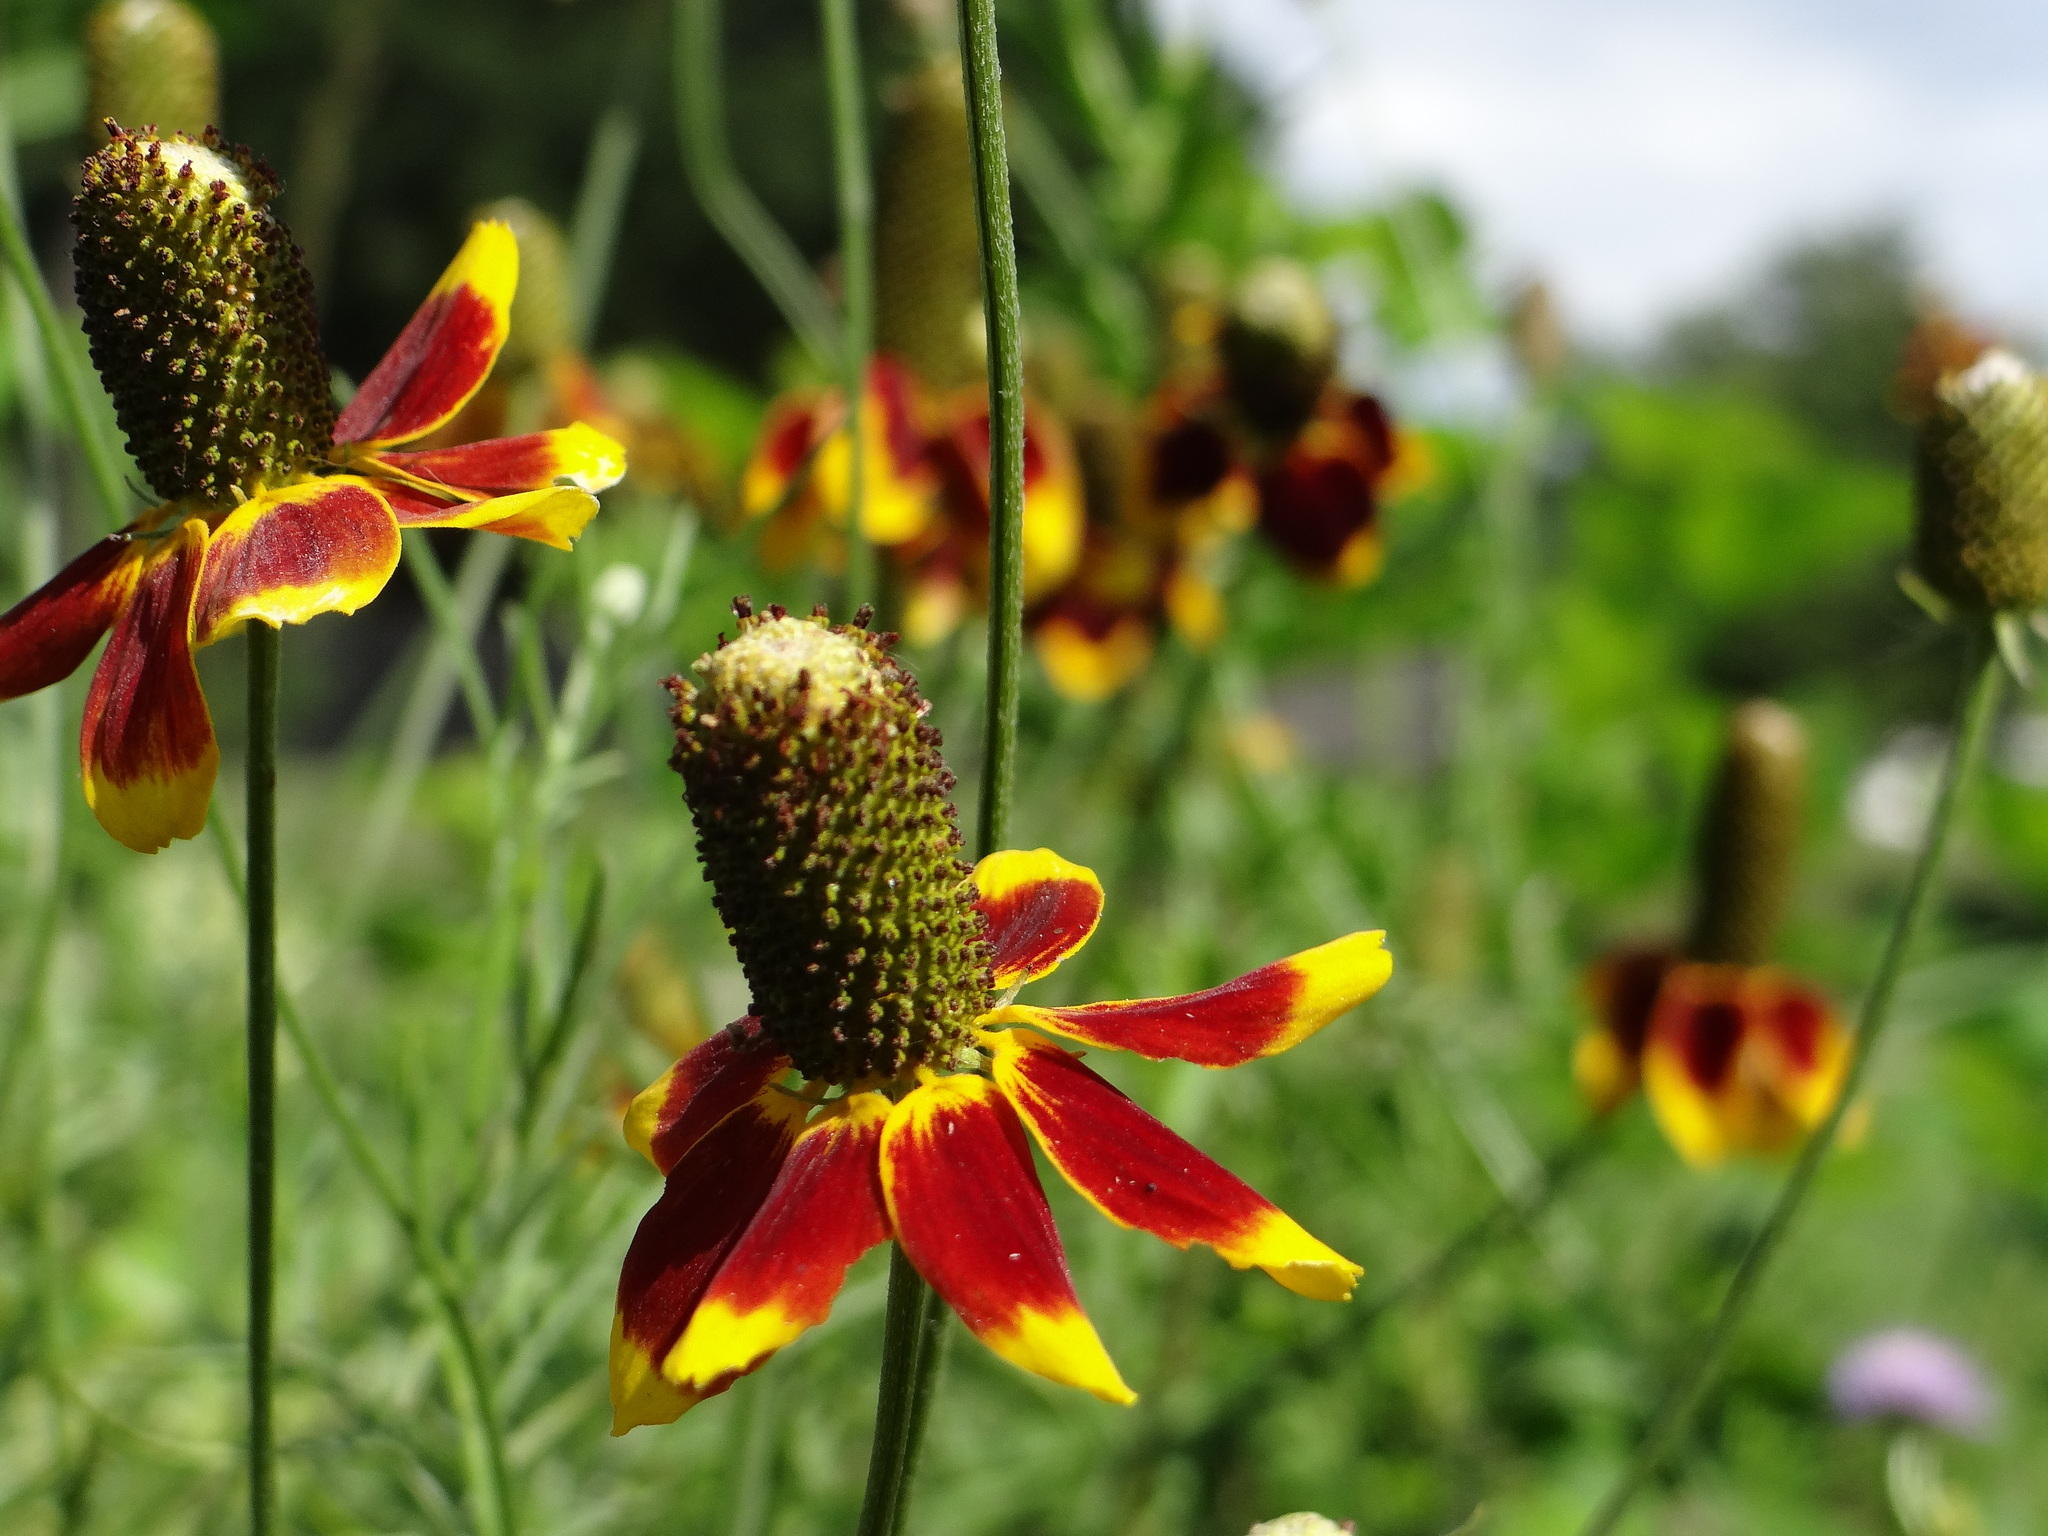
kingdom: Plantae
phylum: Tracheophyta
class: Magnoliopsida
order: Asterales
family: Asteraceae
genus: Ratibida
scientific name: Ratibida columnifera
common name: Prairie coneflower
